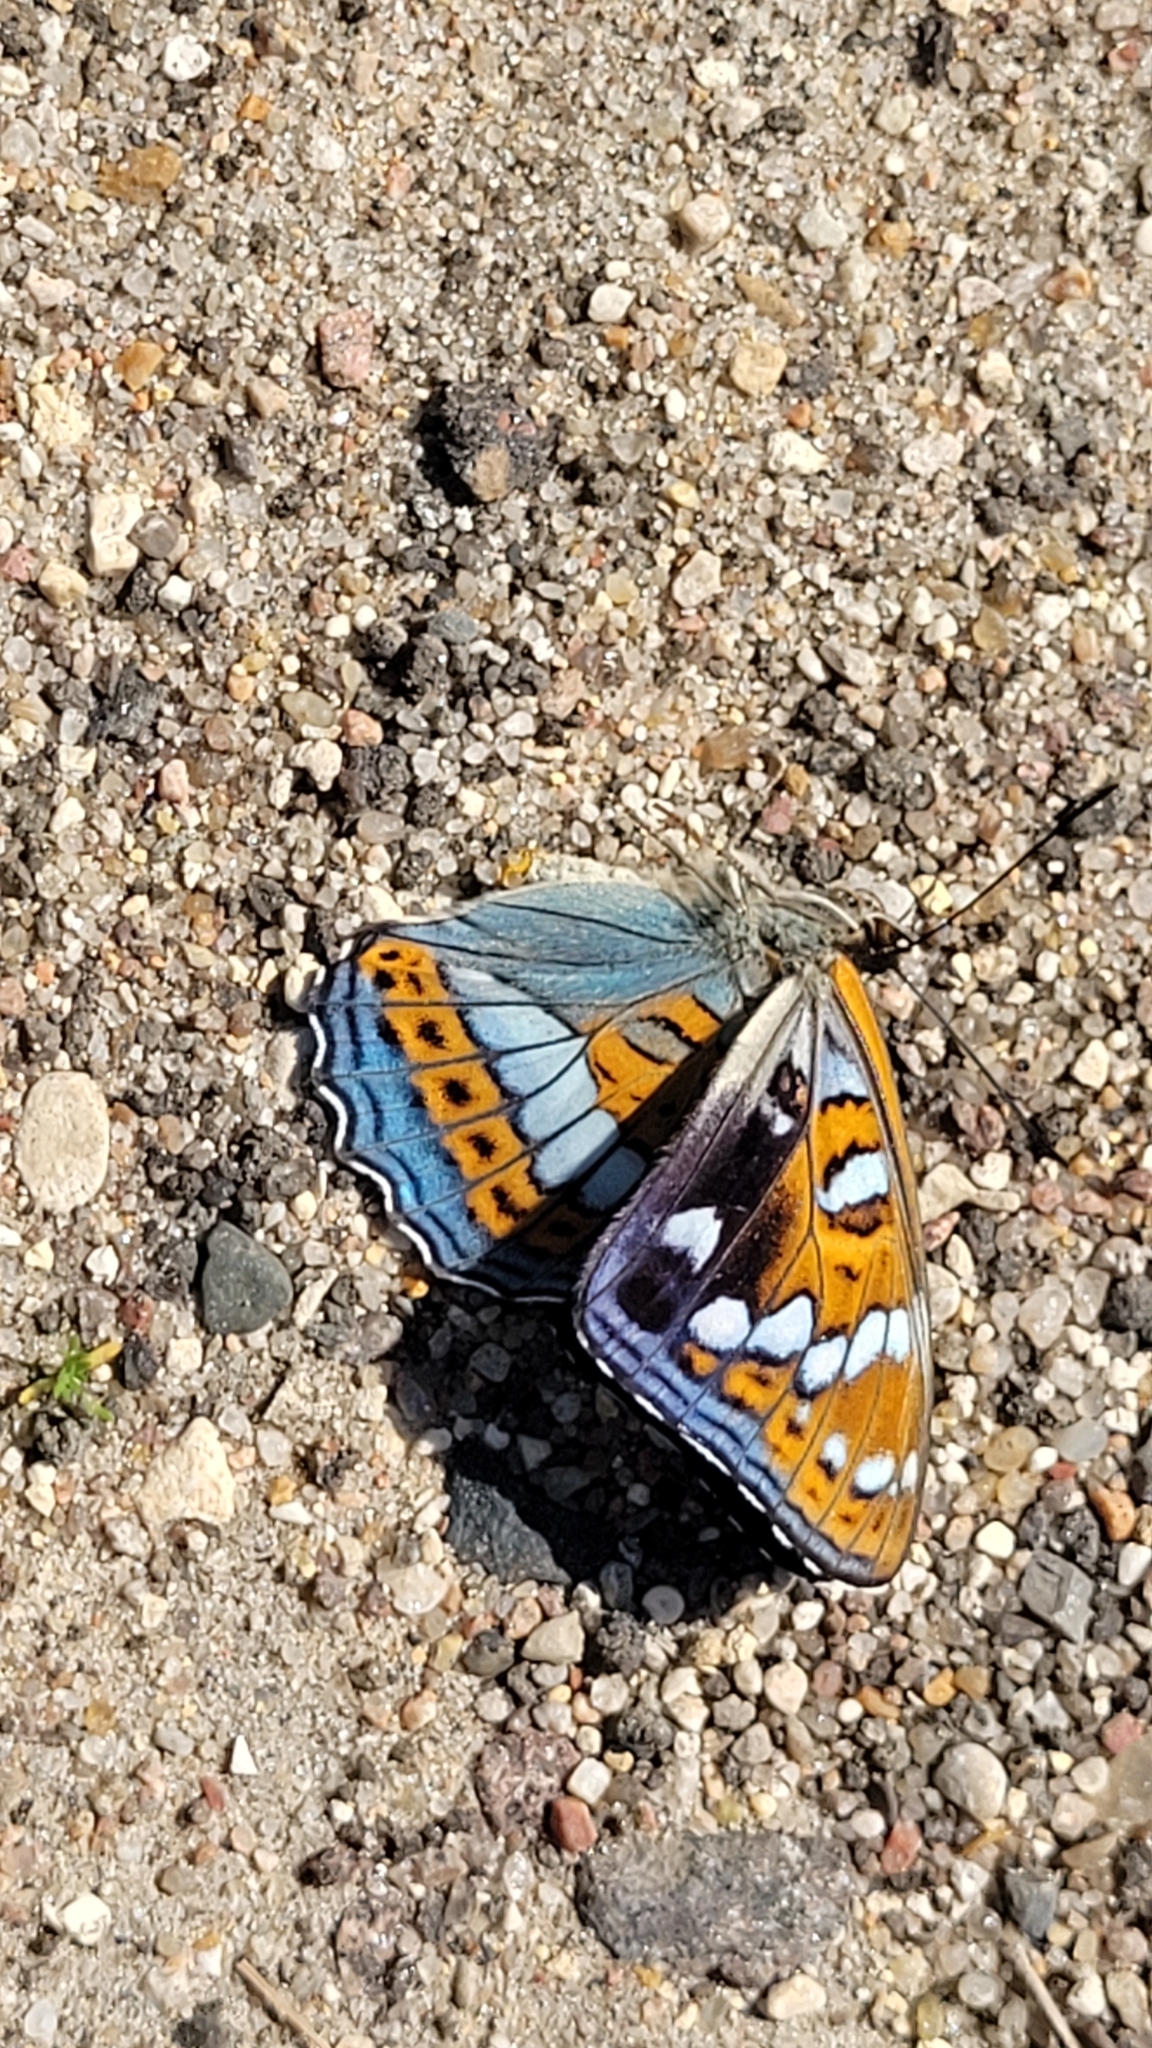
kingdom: Animalia
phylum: Arthropoda
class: Insecta
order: Lepidoptera
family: Nymphalidae
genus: Limenitis
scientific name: Limenitis populi
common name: Poplar admiral
